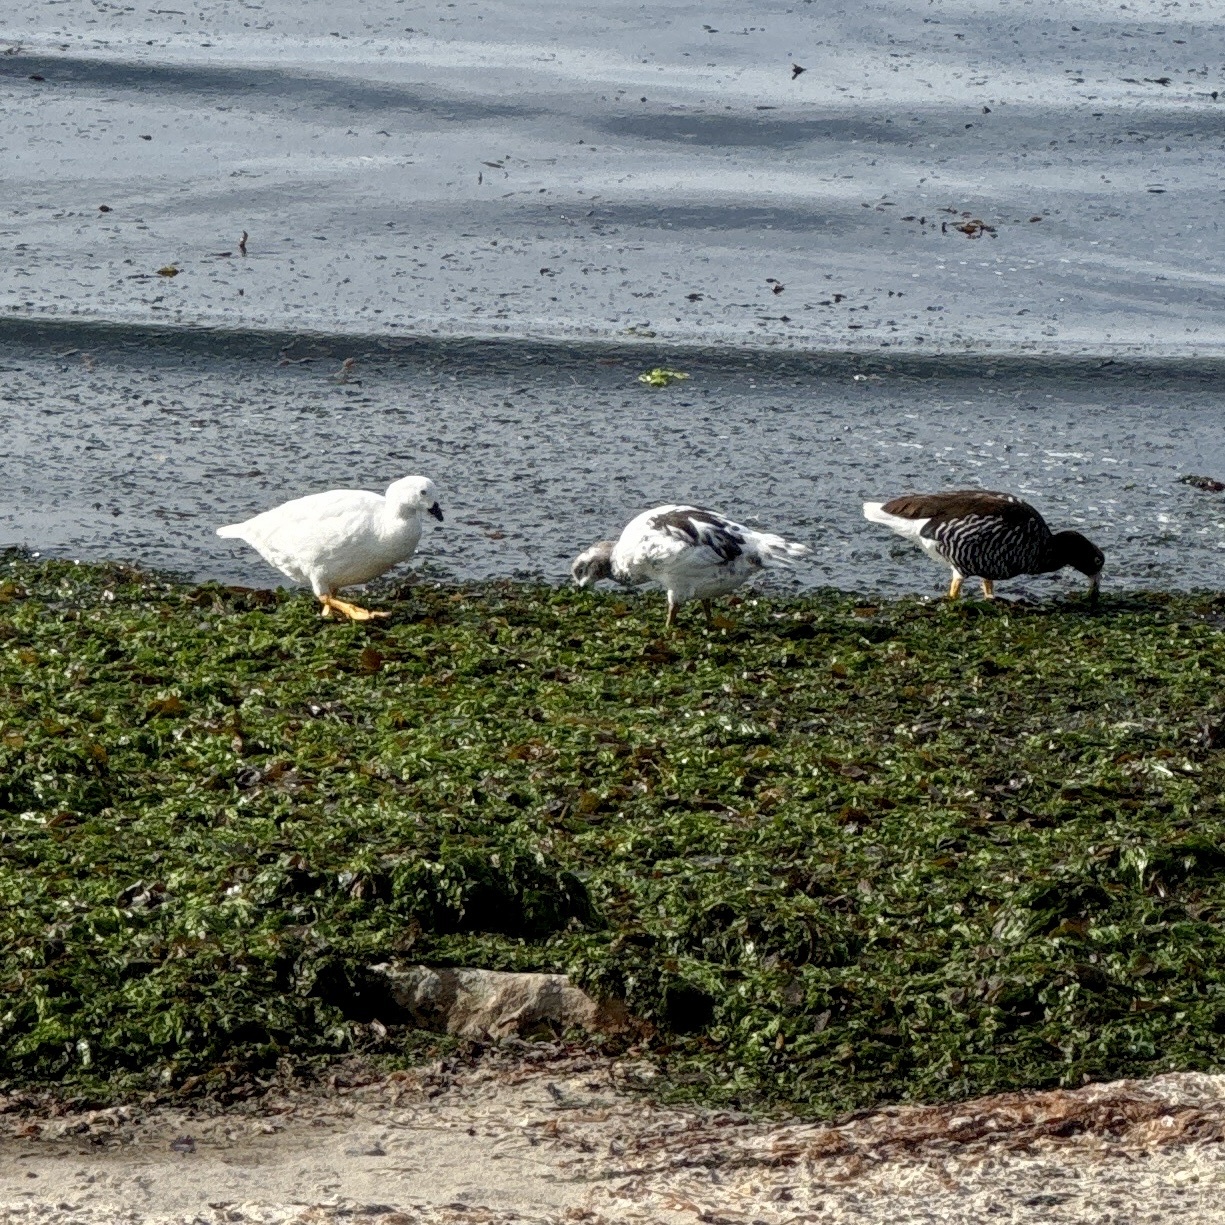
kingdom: Animalia
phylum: Chordata
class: Aves
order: Anseriformes
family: Anatidae
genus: Chloephaga
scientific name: Chloephaga hybrida
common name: Kelp goose
